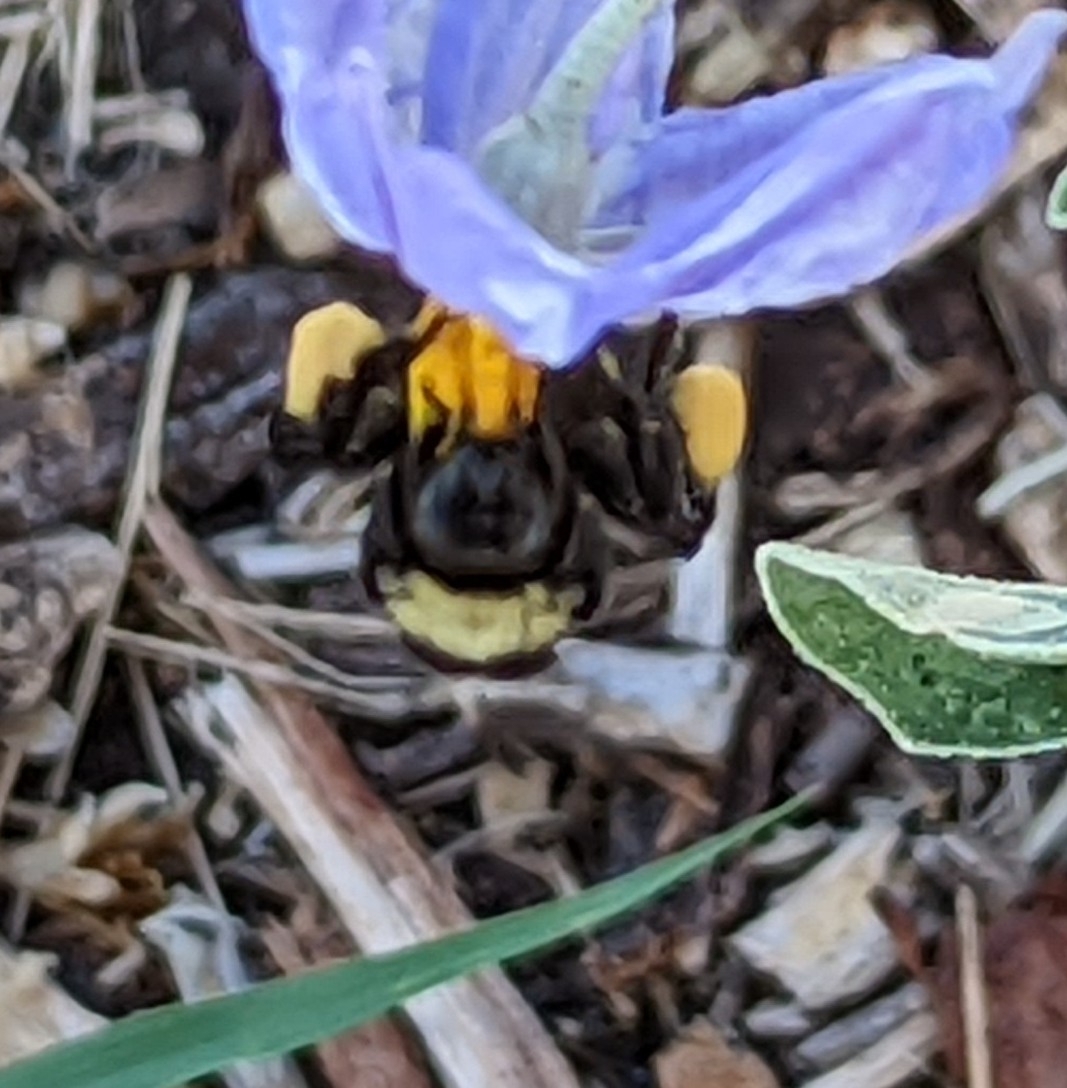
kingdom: Animalia
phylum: Arthropoda
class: Insecta
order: Hymenoptera
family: Apidae
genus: Bombus
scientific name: Bombus pensylvanicus
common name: Bumble bee
